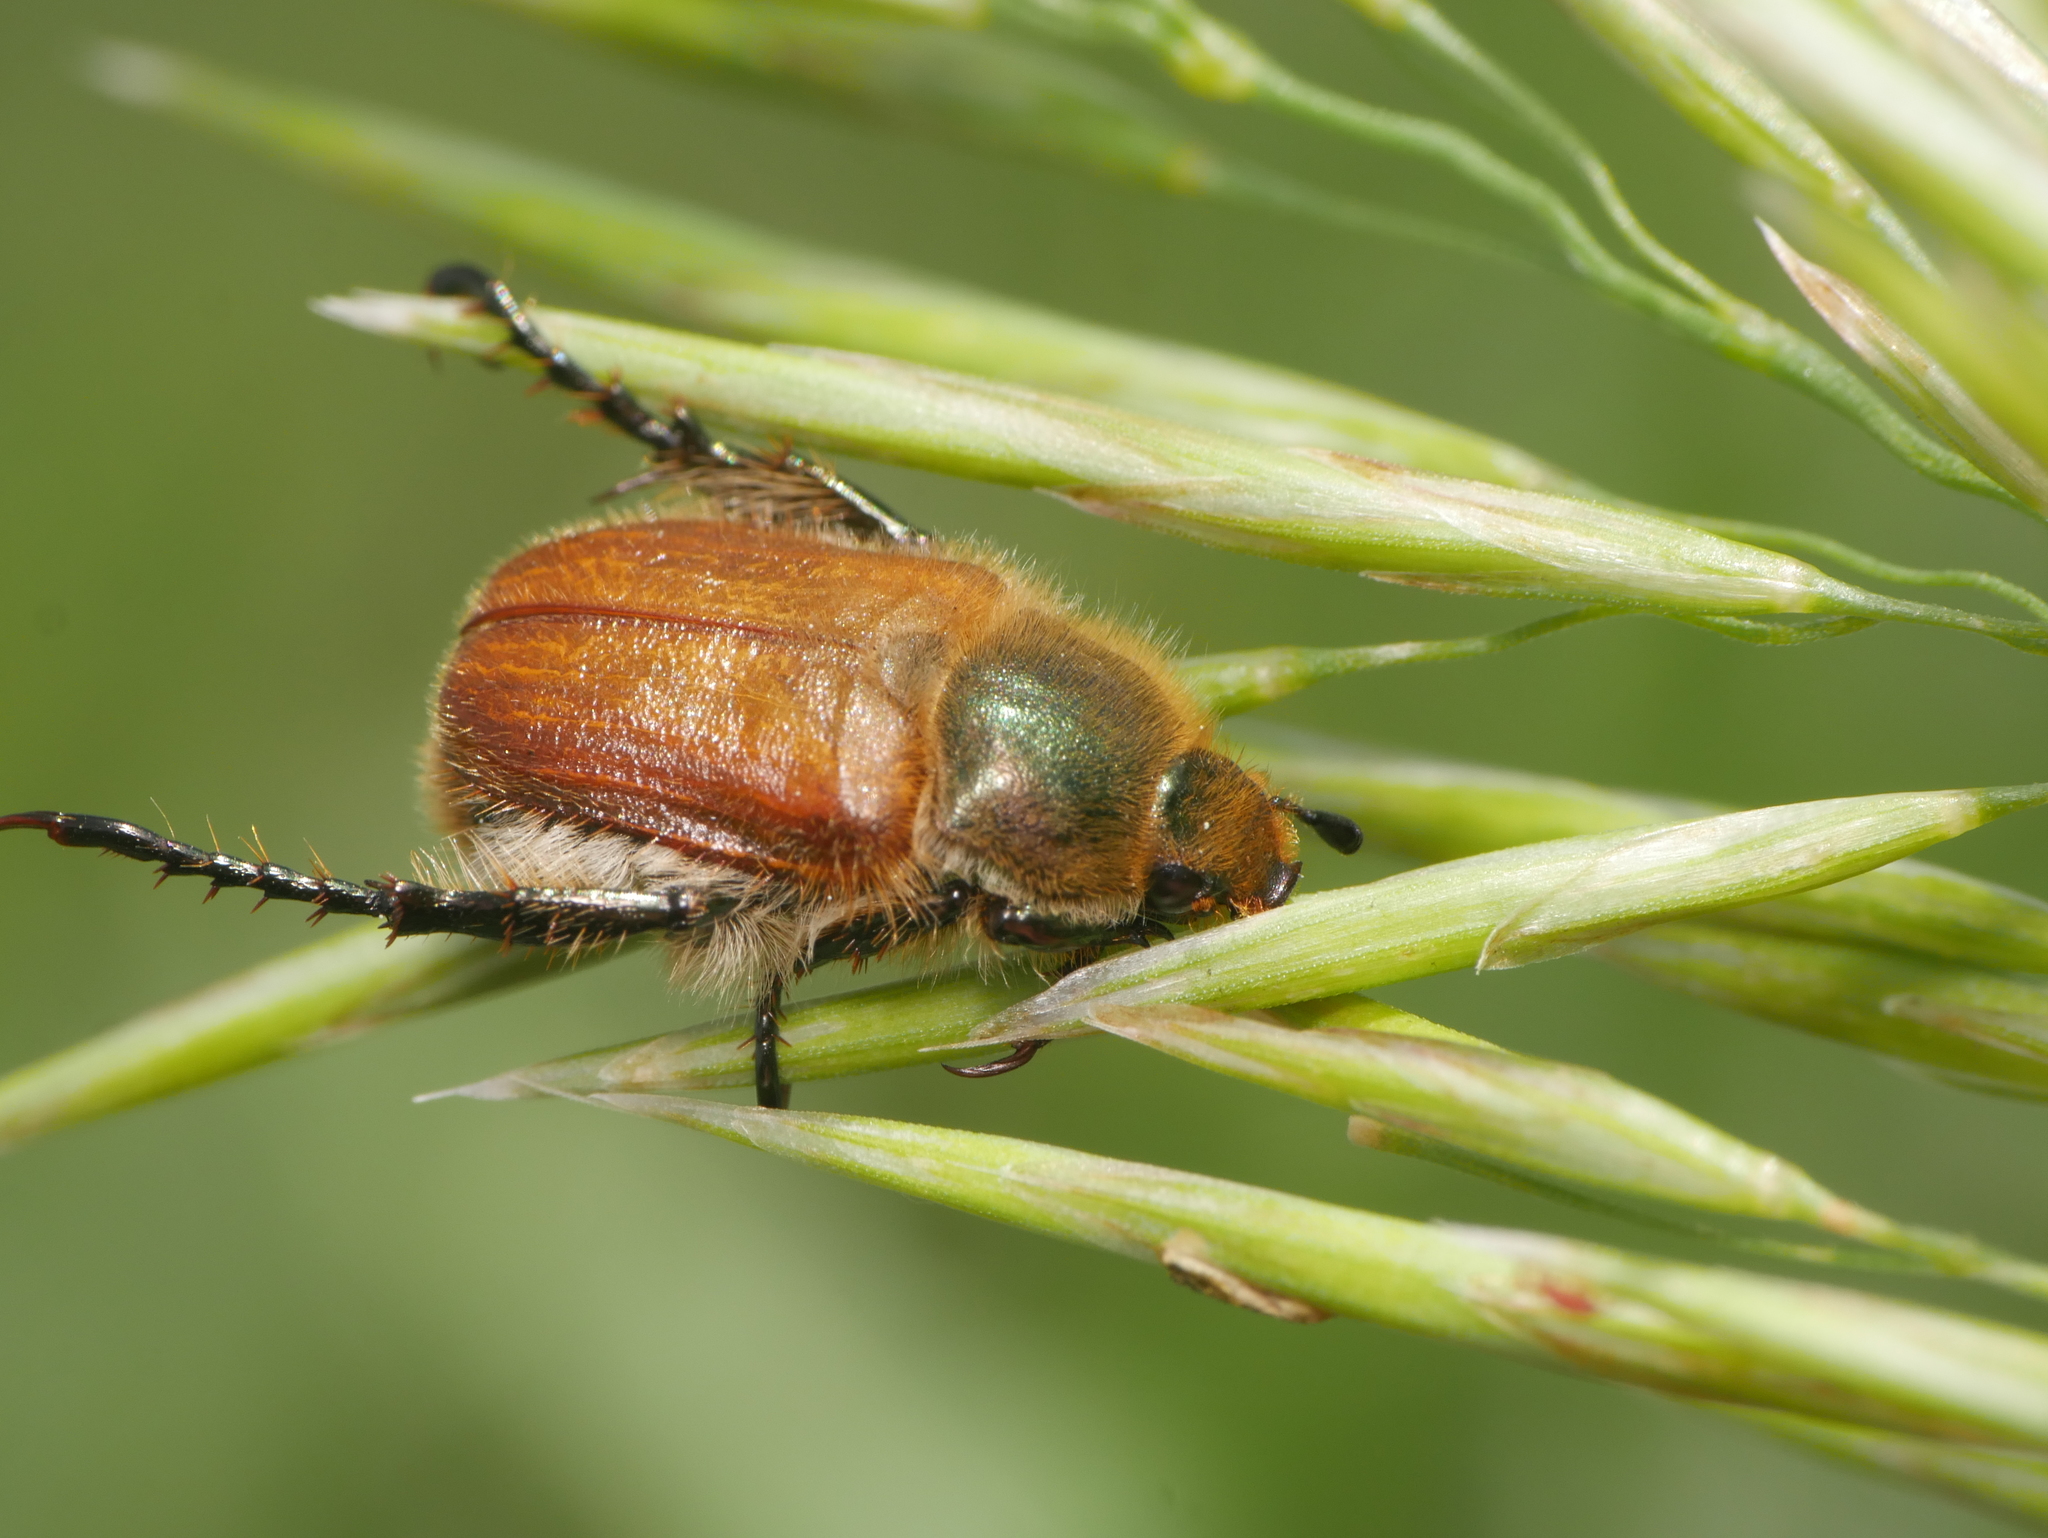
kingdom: Animalia
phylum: Arthropoda
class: Insecta
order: Coleoptera
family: Scarabaeidae
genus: Chaetopteroplia
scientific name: Chaetopteroplia segetum
